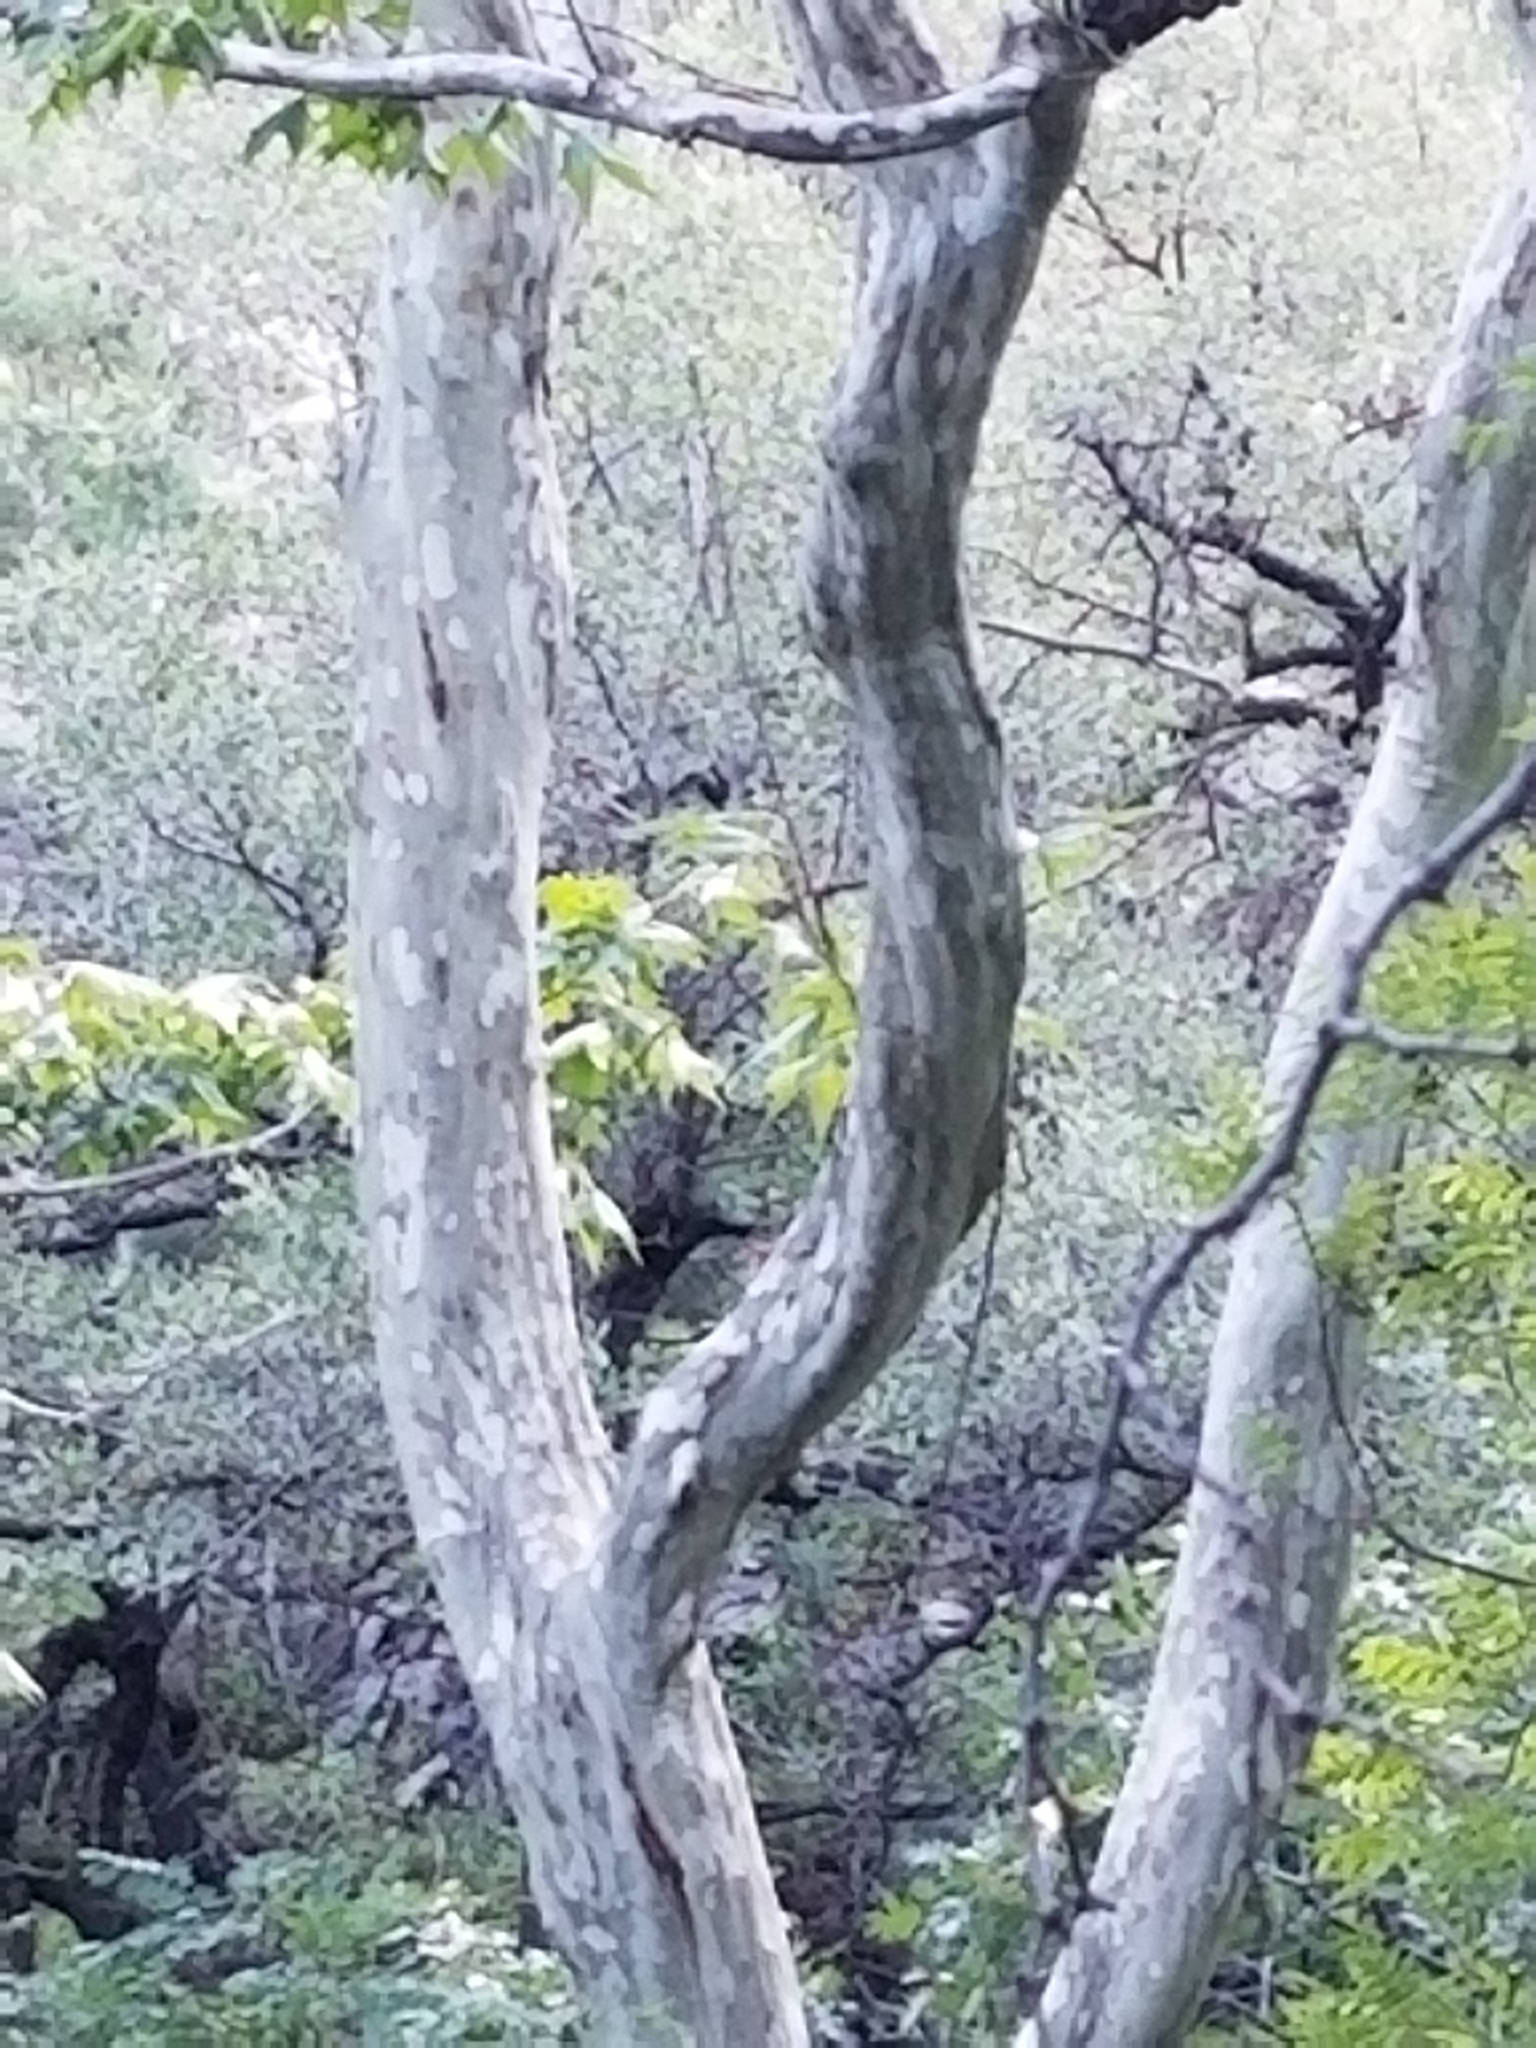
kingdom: Plantae
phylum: Tracheophyta
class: Magnoliopsida
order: Proteales
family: Platanaceae
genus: Platanus
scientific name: Platanus wrightii
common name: Arizona sycamore
